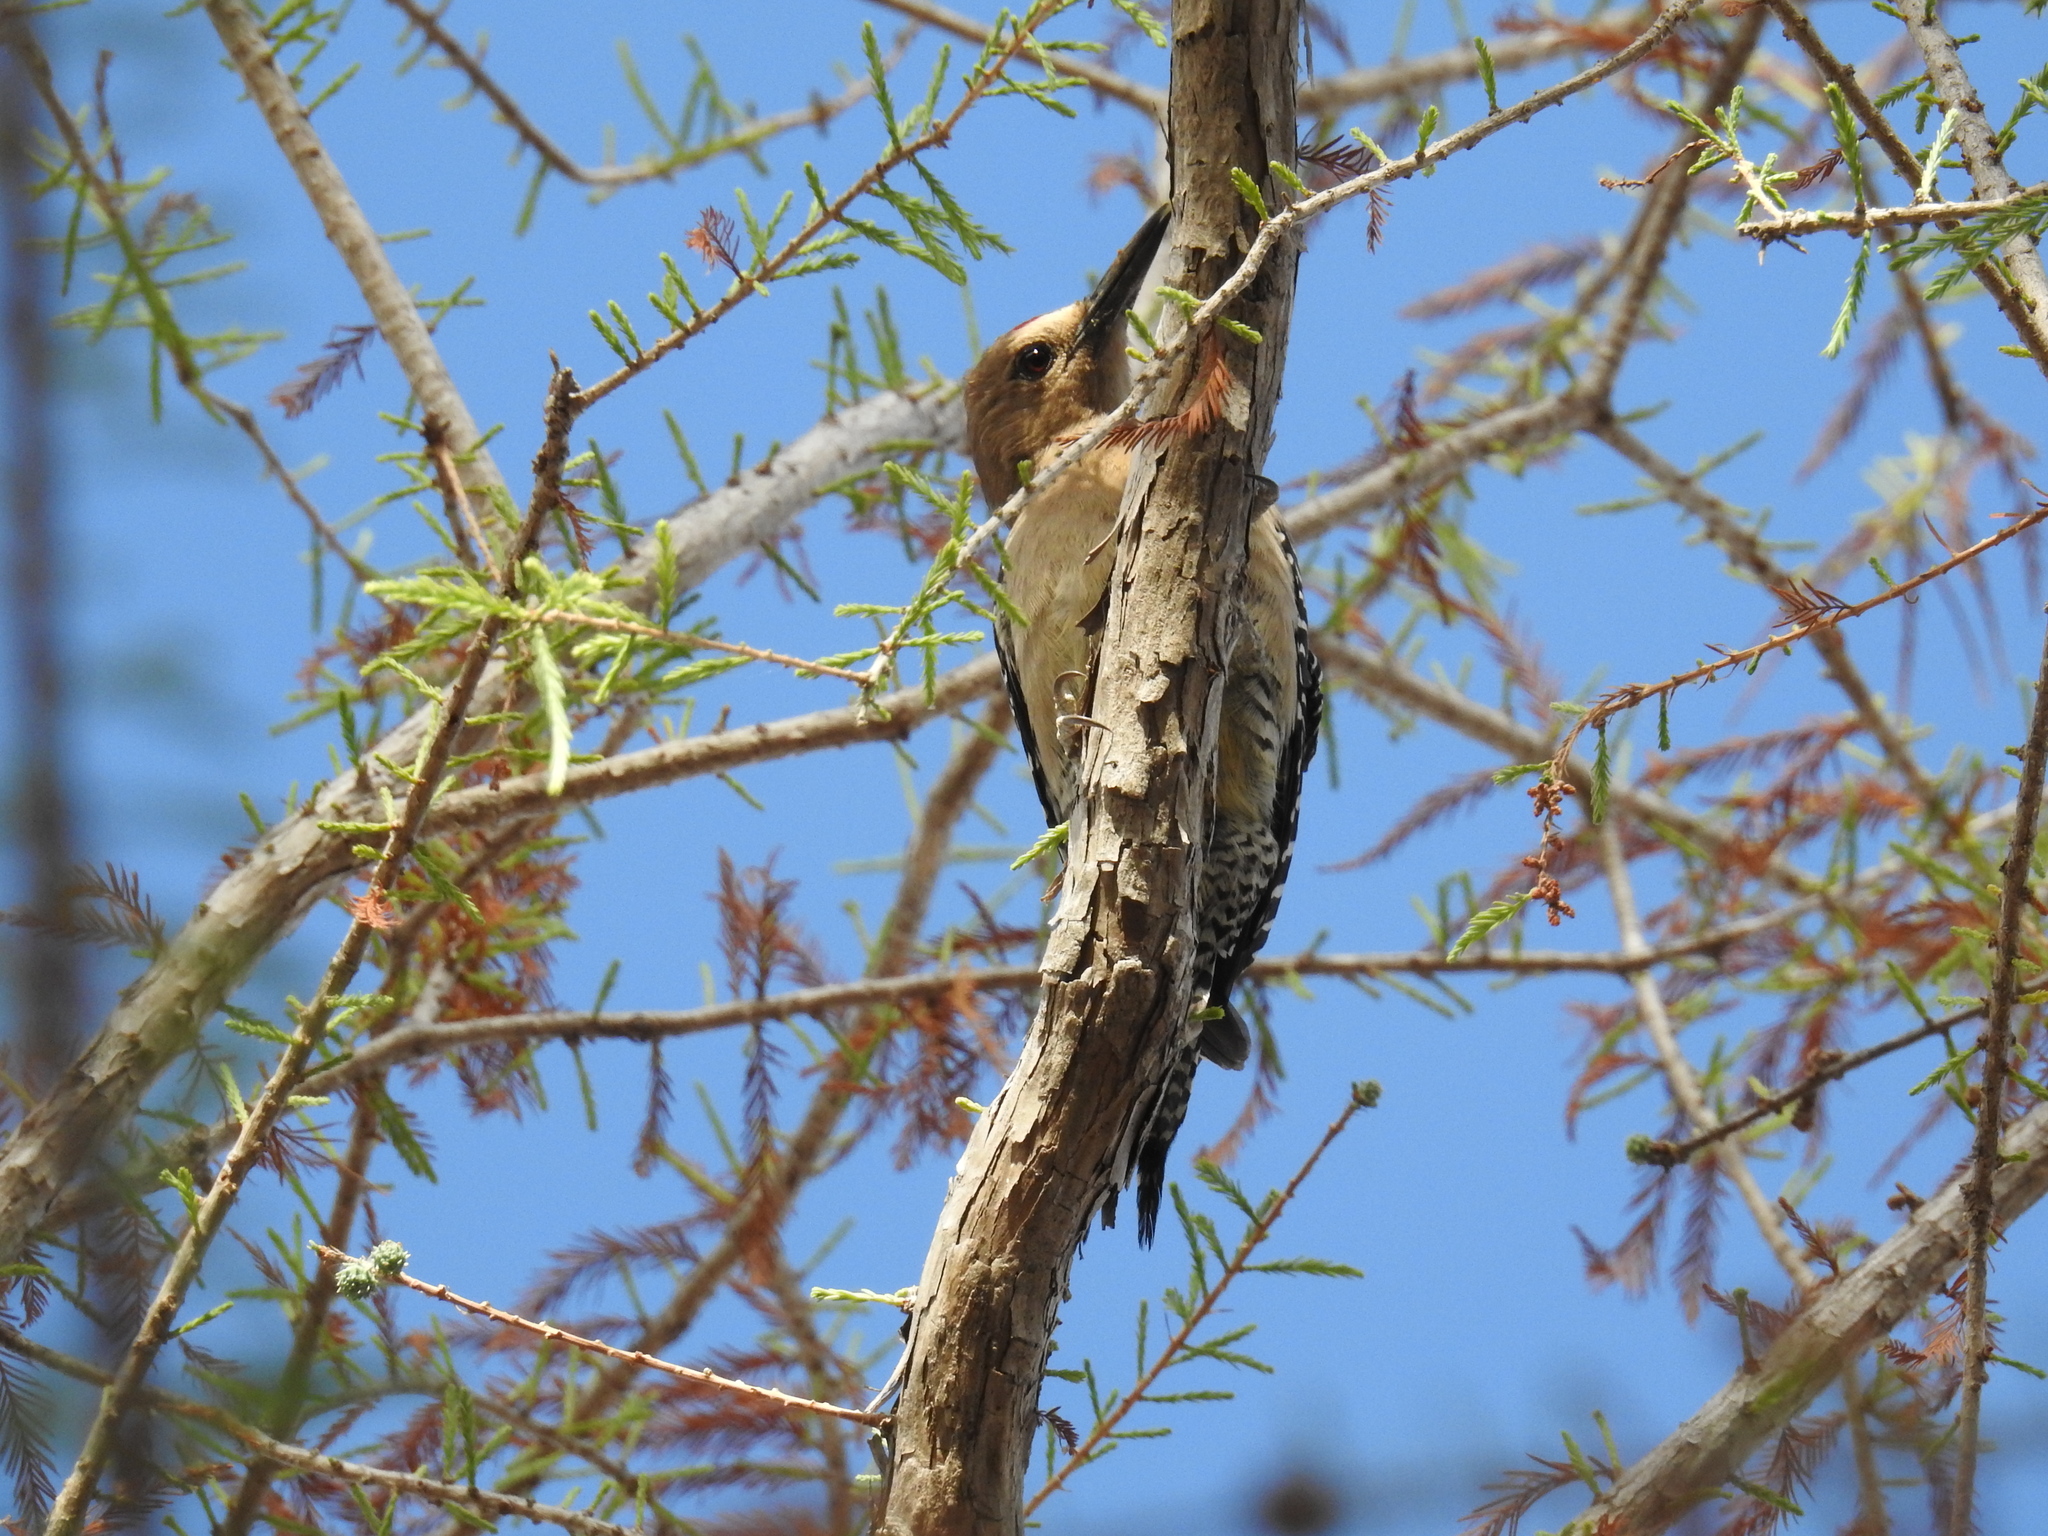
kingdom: Animalia
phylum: Chordata
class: Aves
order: Piciformes
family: Picidae
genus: Melanerpes
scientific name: Melanerpes uropygialis
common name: Gila woodpecker
